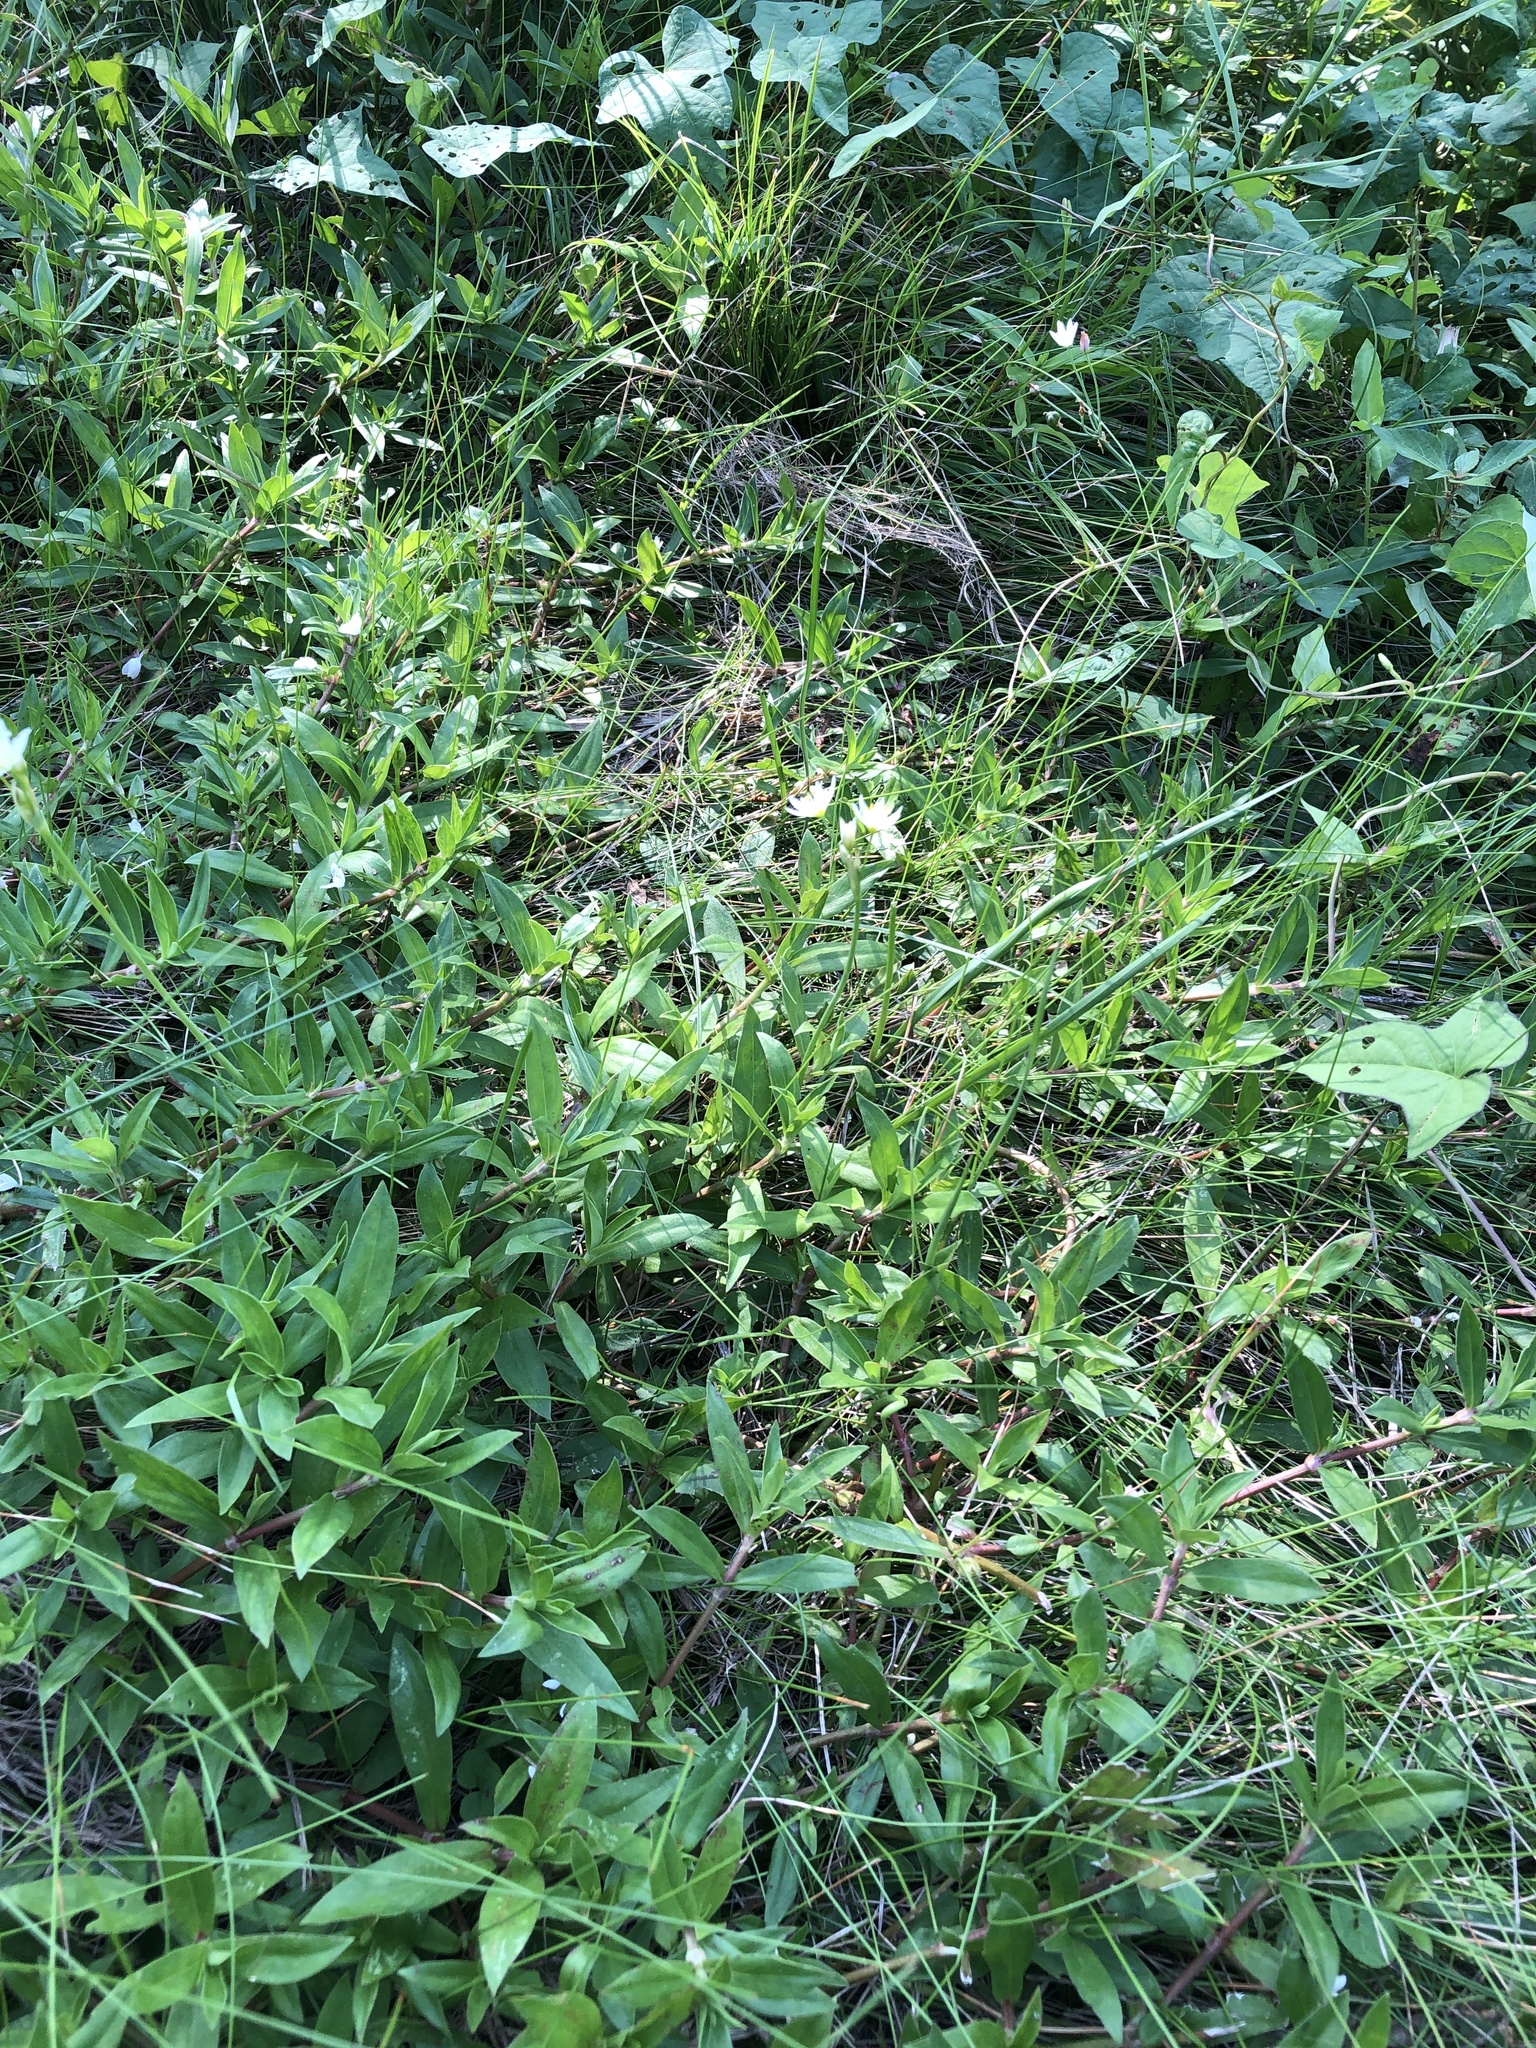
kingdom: Plantae
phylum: Tracheophyta
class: Liliopsida
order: Asparagales
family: Amaryllidaceae
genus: Nothoscordum
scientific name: Nothoscordum bivalve
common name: Crow-poison
